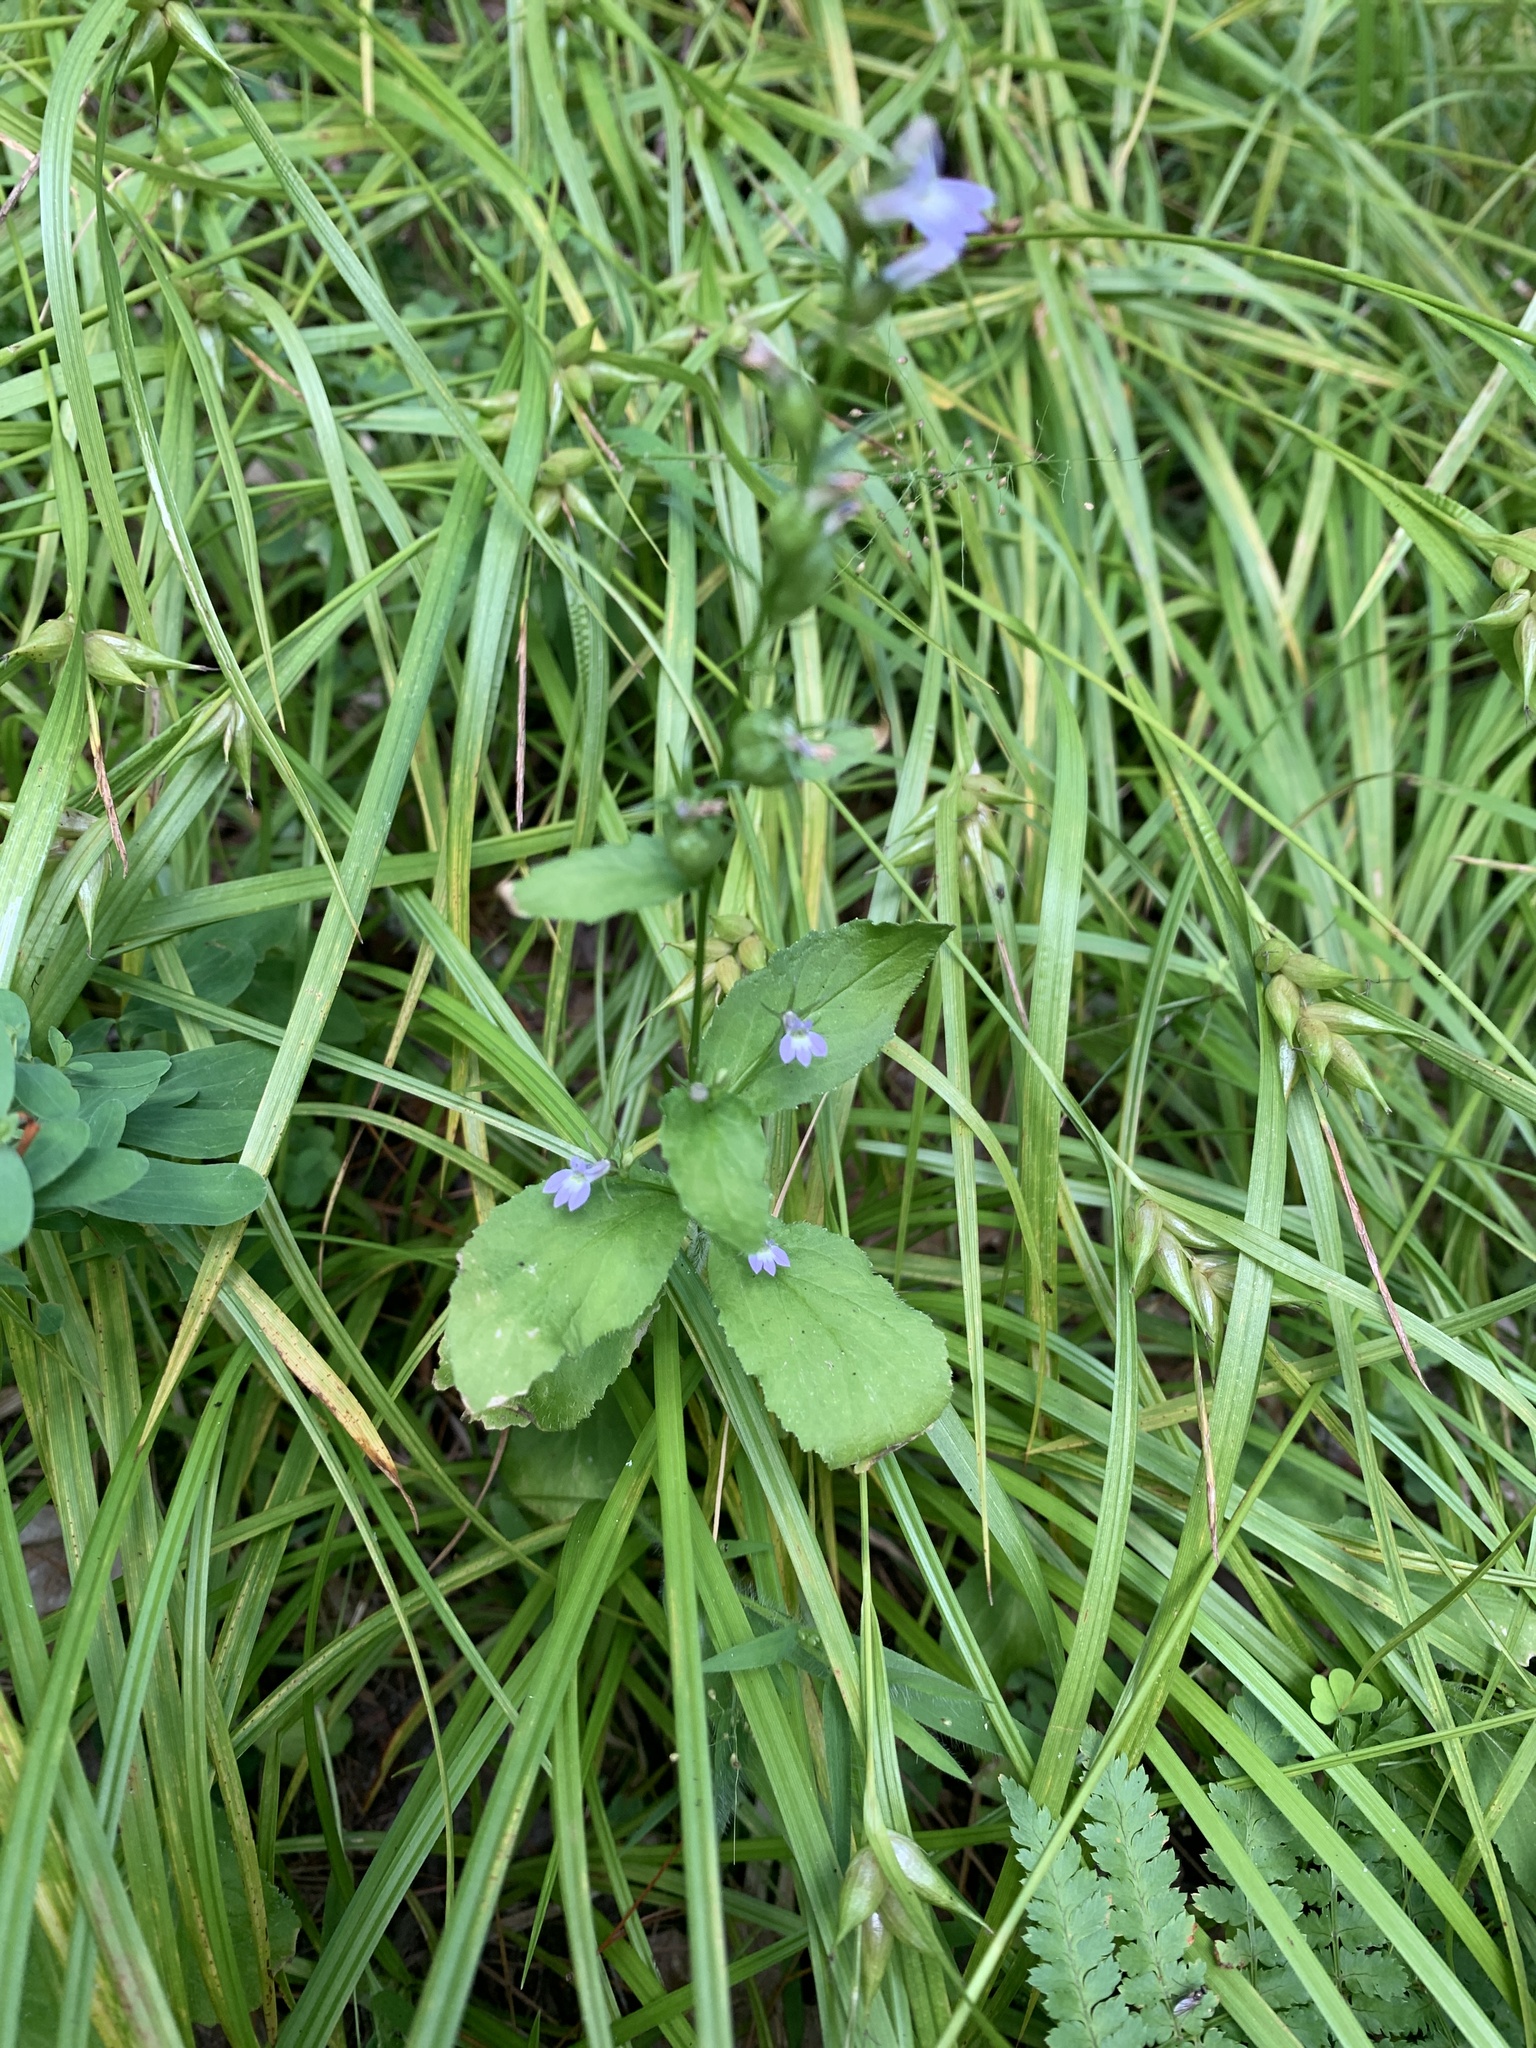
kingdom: Plantae
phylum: Tracheophyta
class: Magnoliopsida
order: Asterales
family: Campanulaceae
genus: Lobelia
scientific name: Lobelia inflata
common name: Indian tobacco
